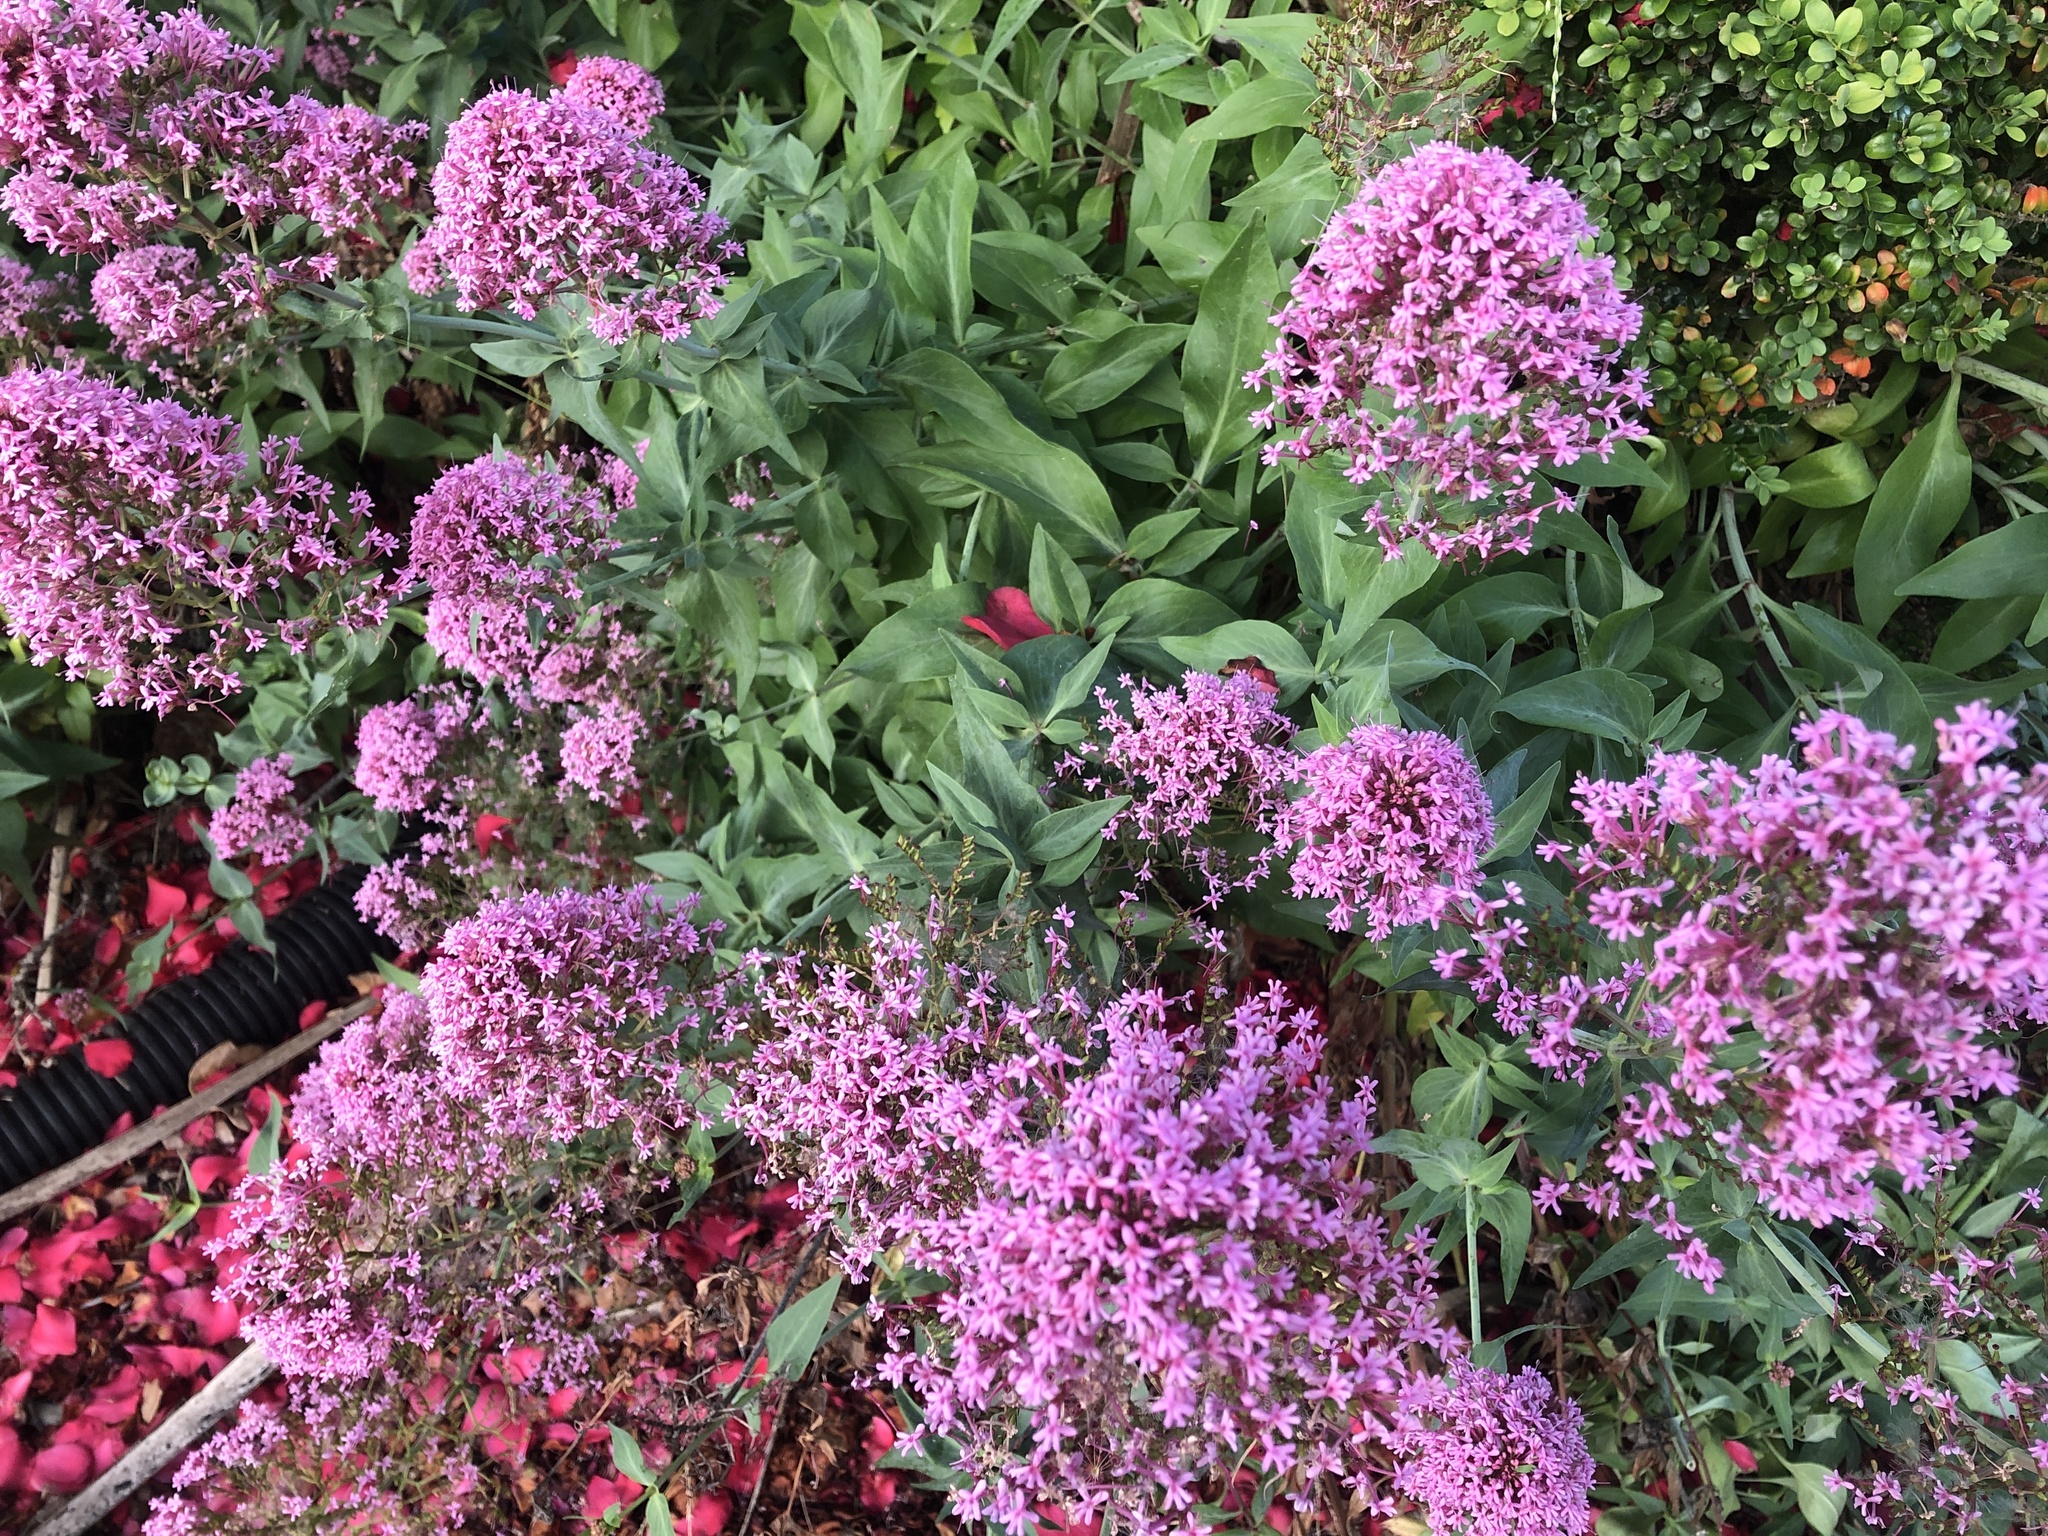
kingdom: Plantae
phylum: Tracheophyta
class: Magnoliopsida
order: Dipsacales
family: Caprifoliaceae
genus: Centranthus
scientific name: Centranthus ruber
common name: Red valerian
